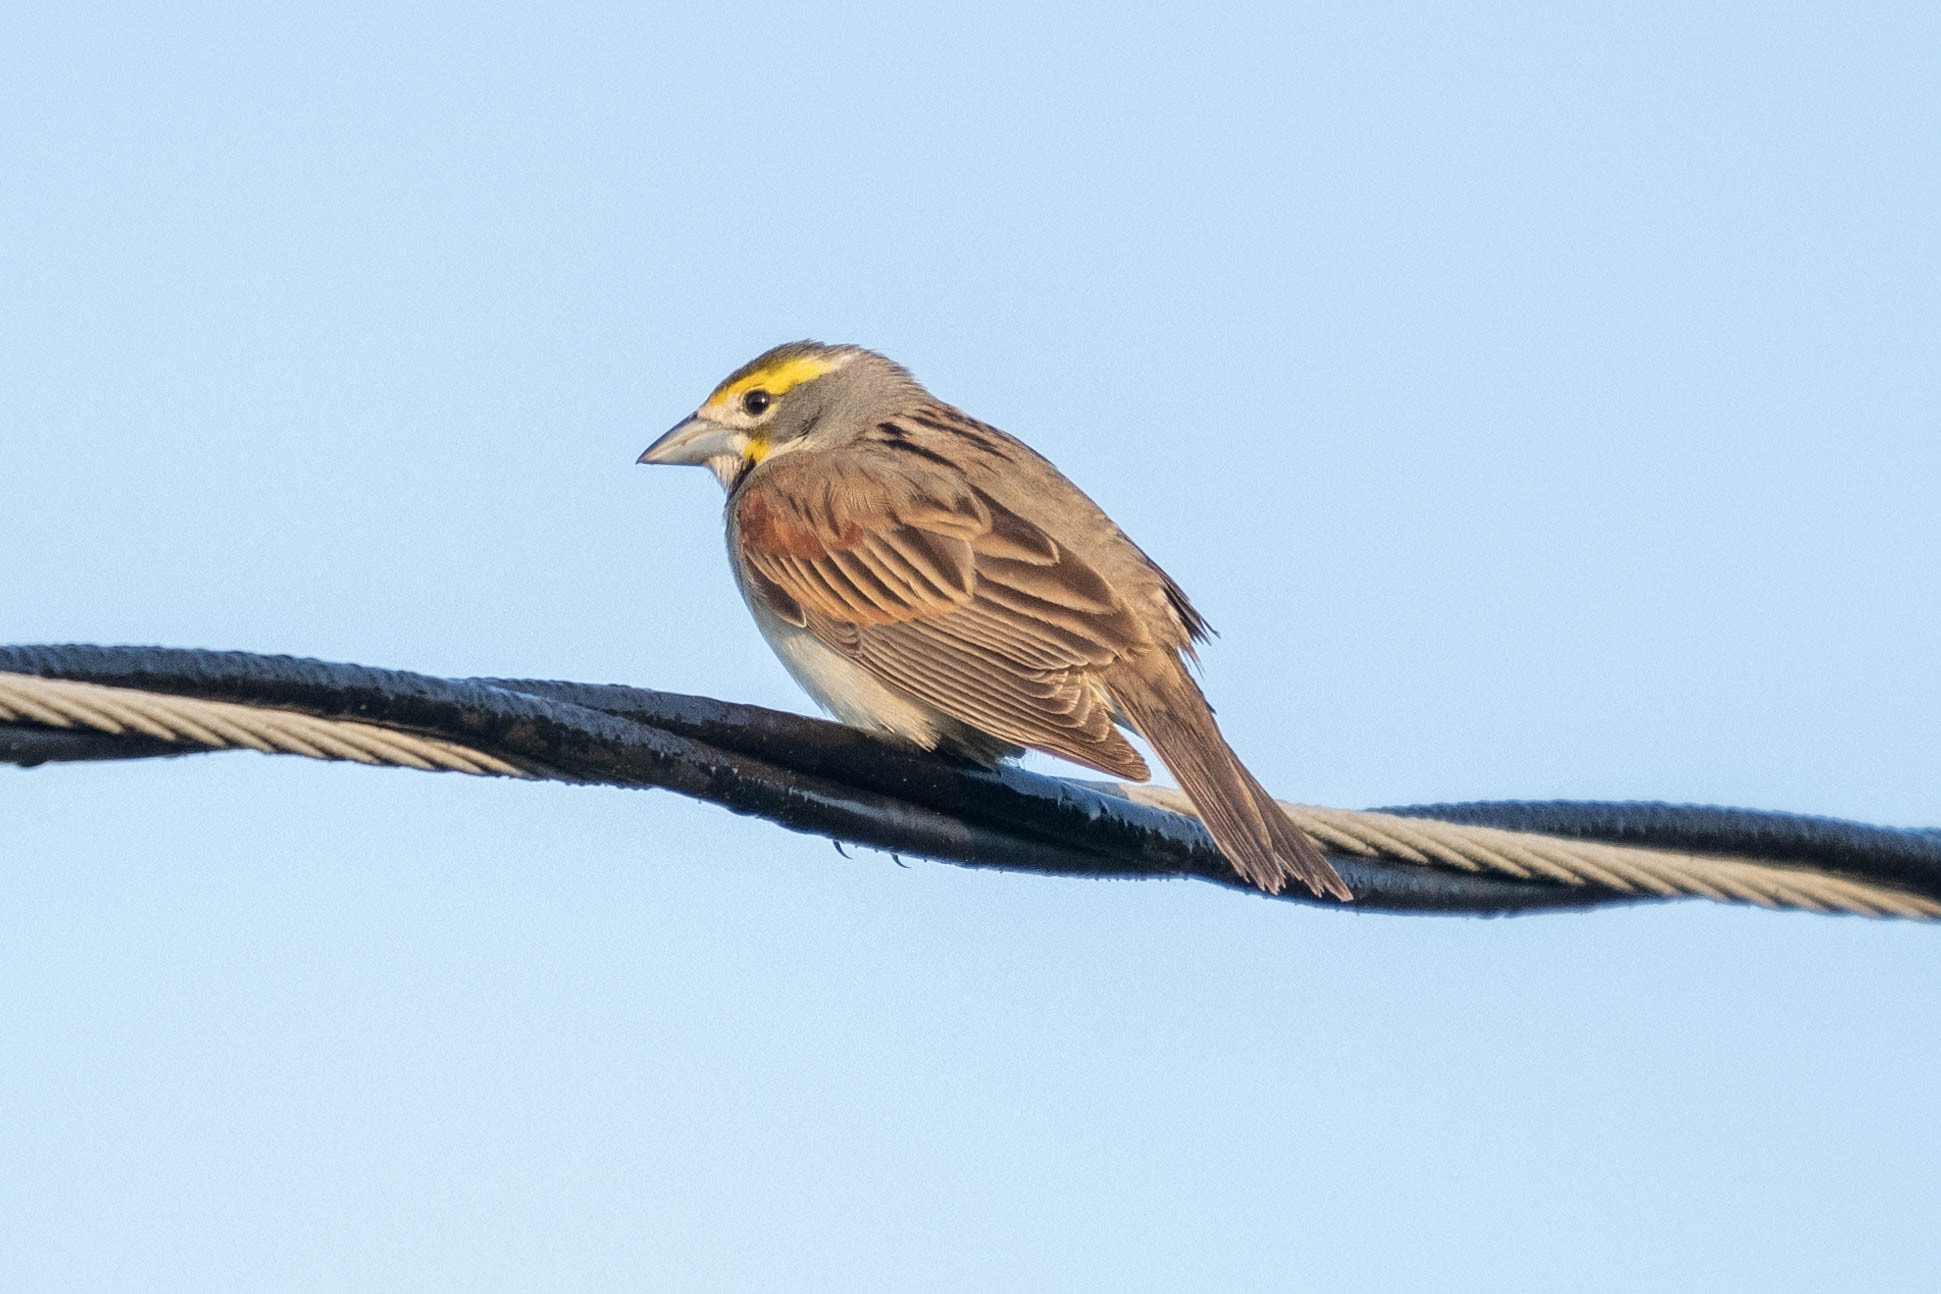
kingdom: Animalia
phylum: Chordata
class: Aves
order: Passeriformes
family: Cardinalidae
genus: Spiza
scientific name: Spiza americana
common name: Dickcissel
